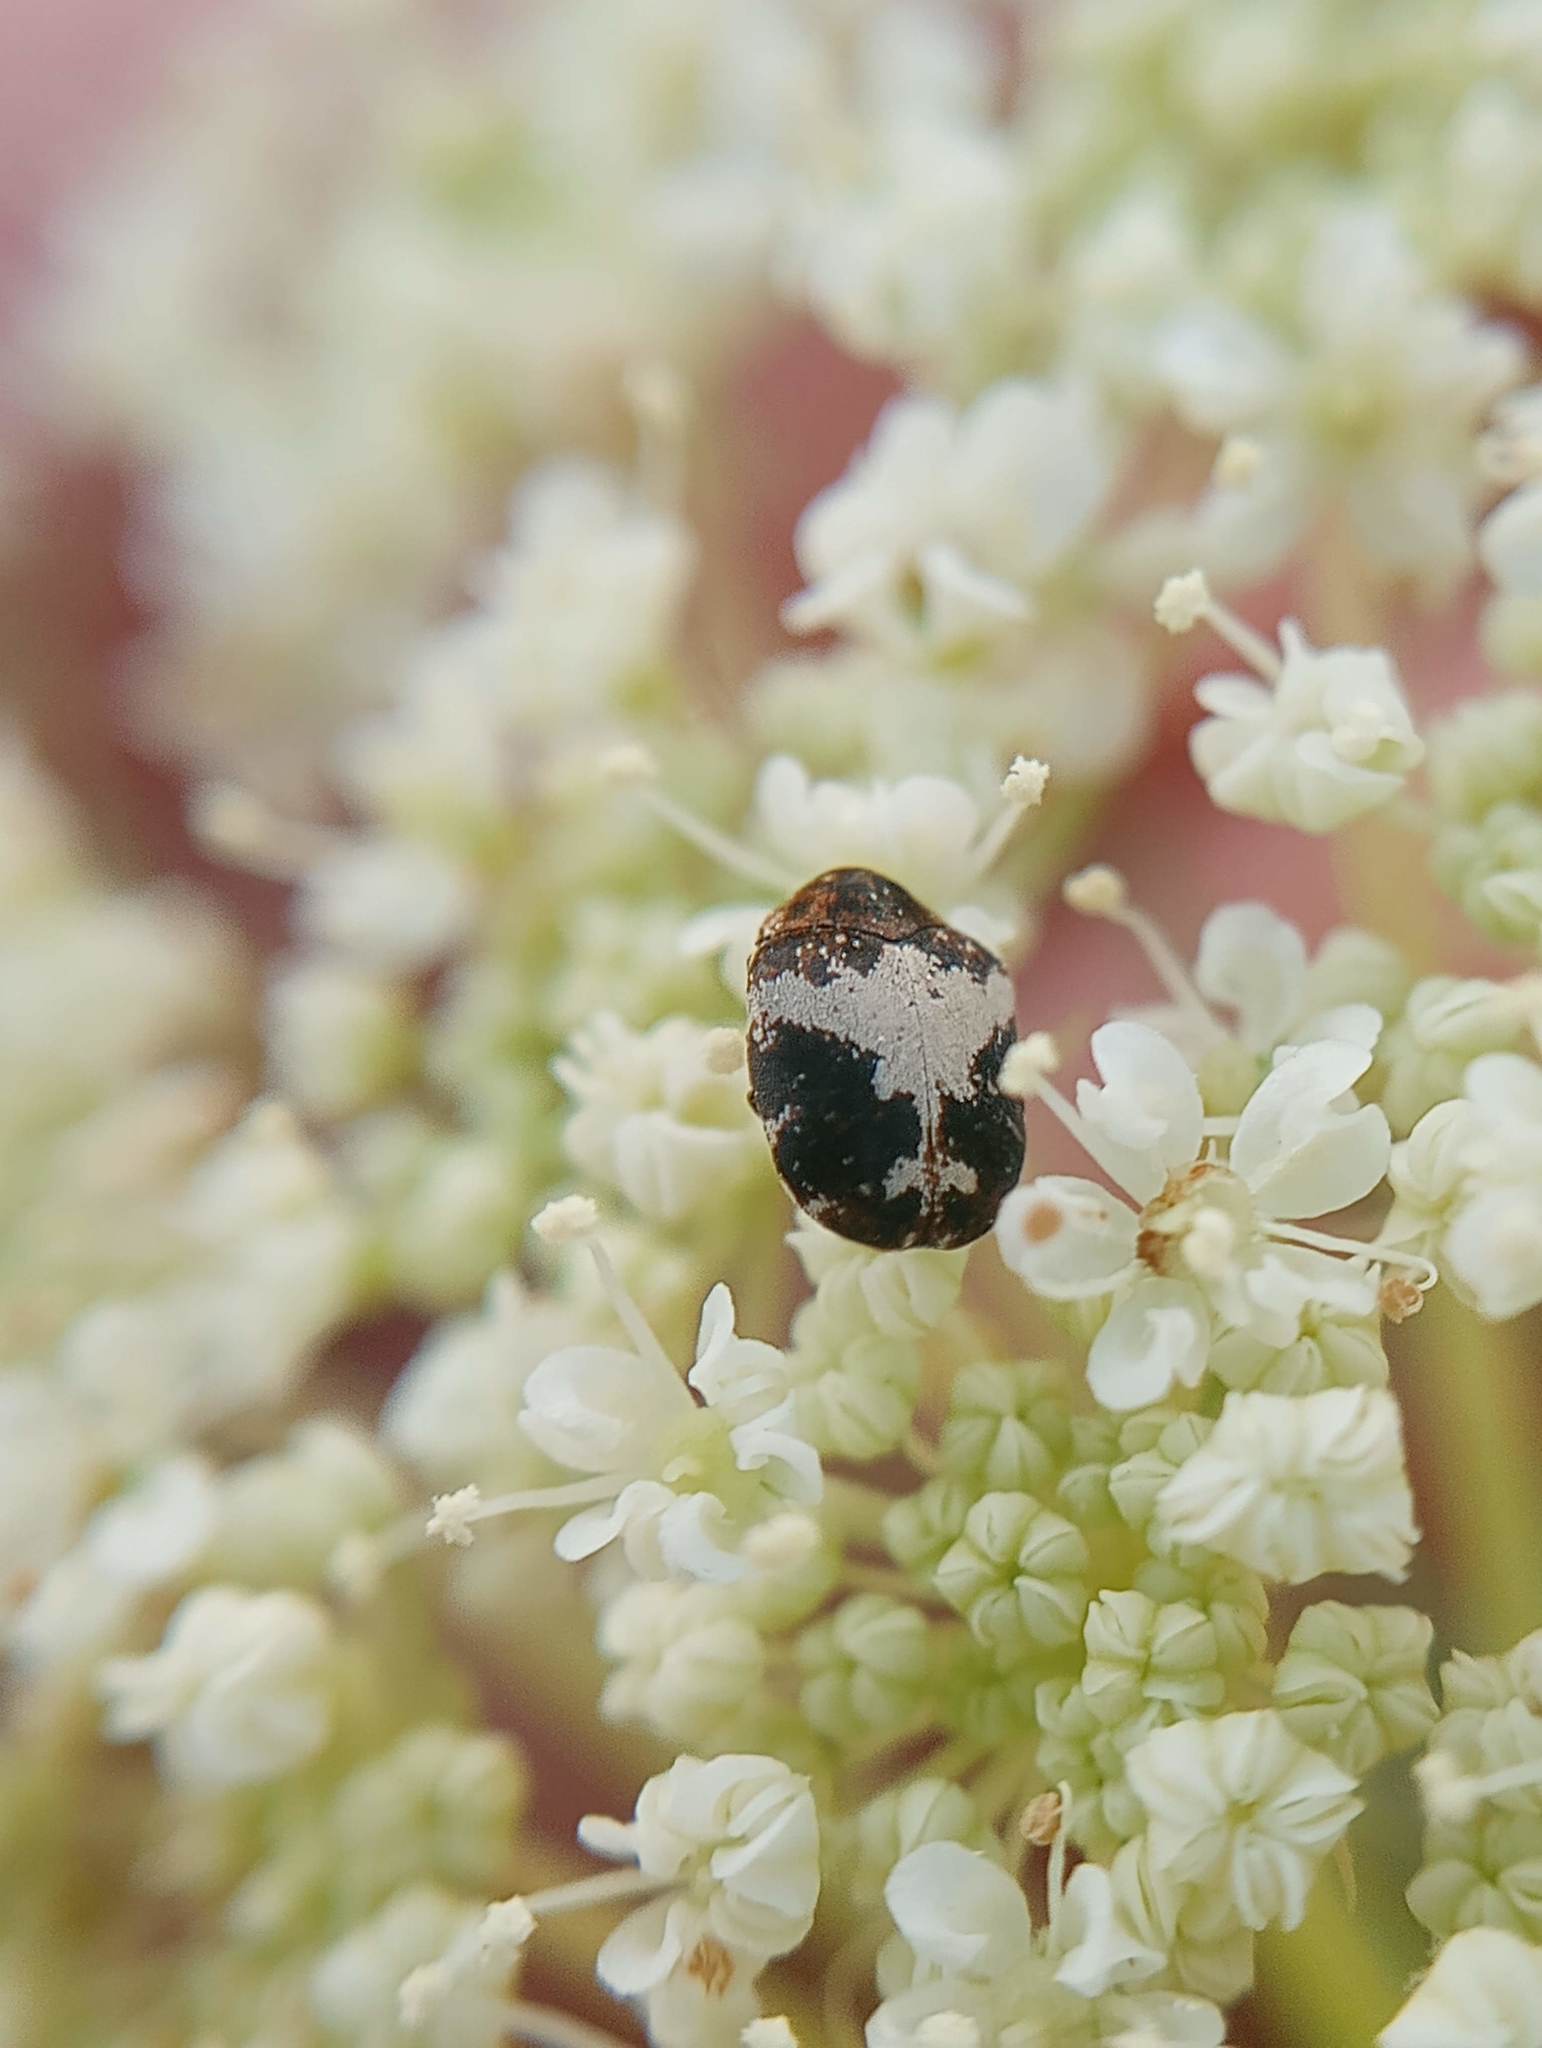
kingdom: Animalia
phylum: Arthropoda
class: Insecta
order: Coleoptera
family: Dermestidae
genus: Anthrenus
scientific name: Anthrenus sophonisba
